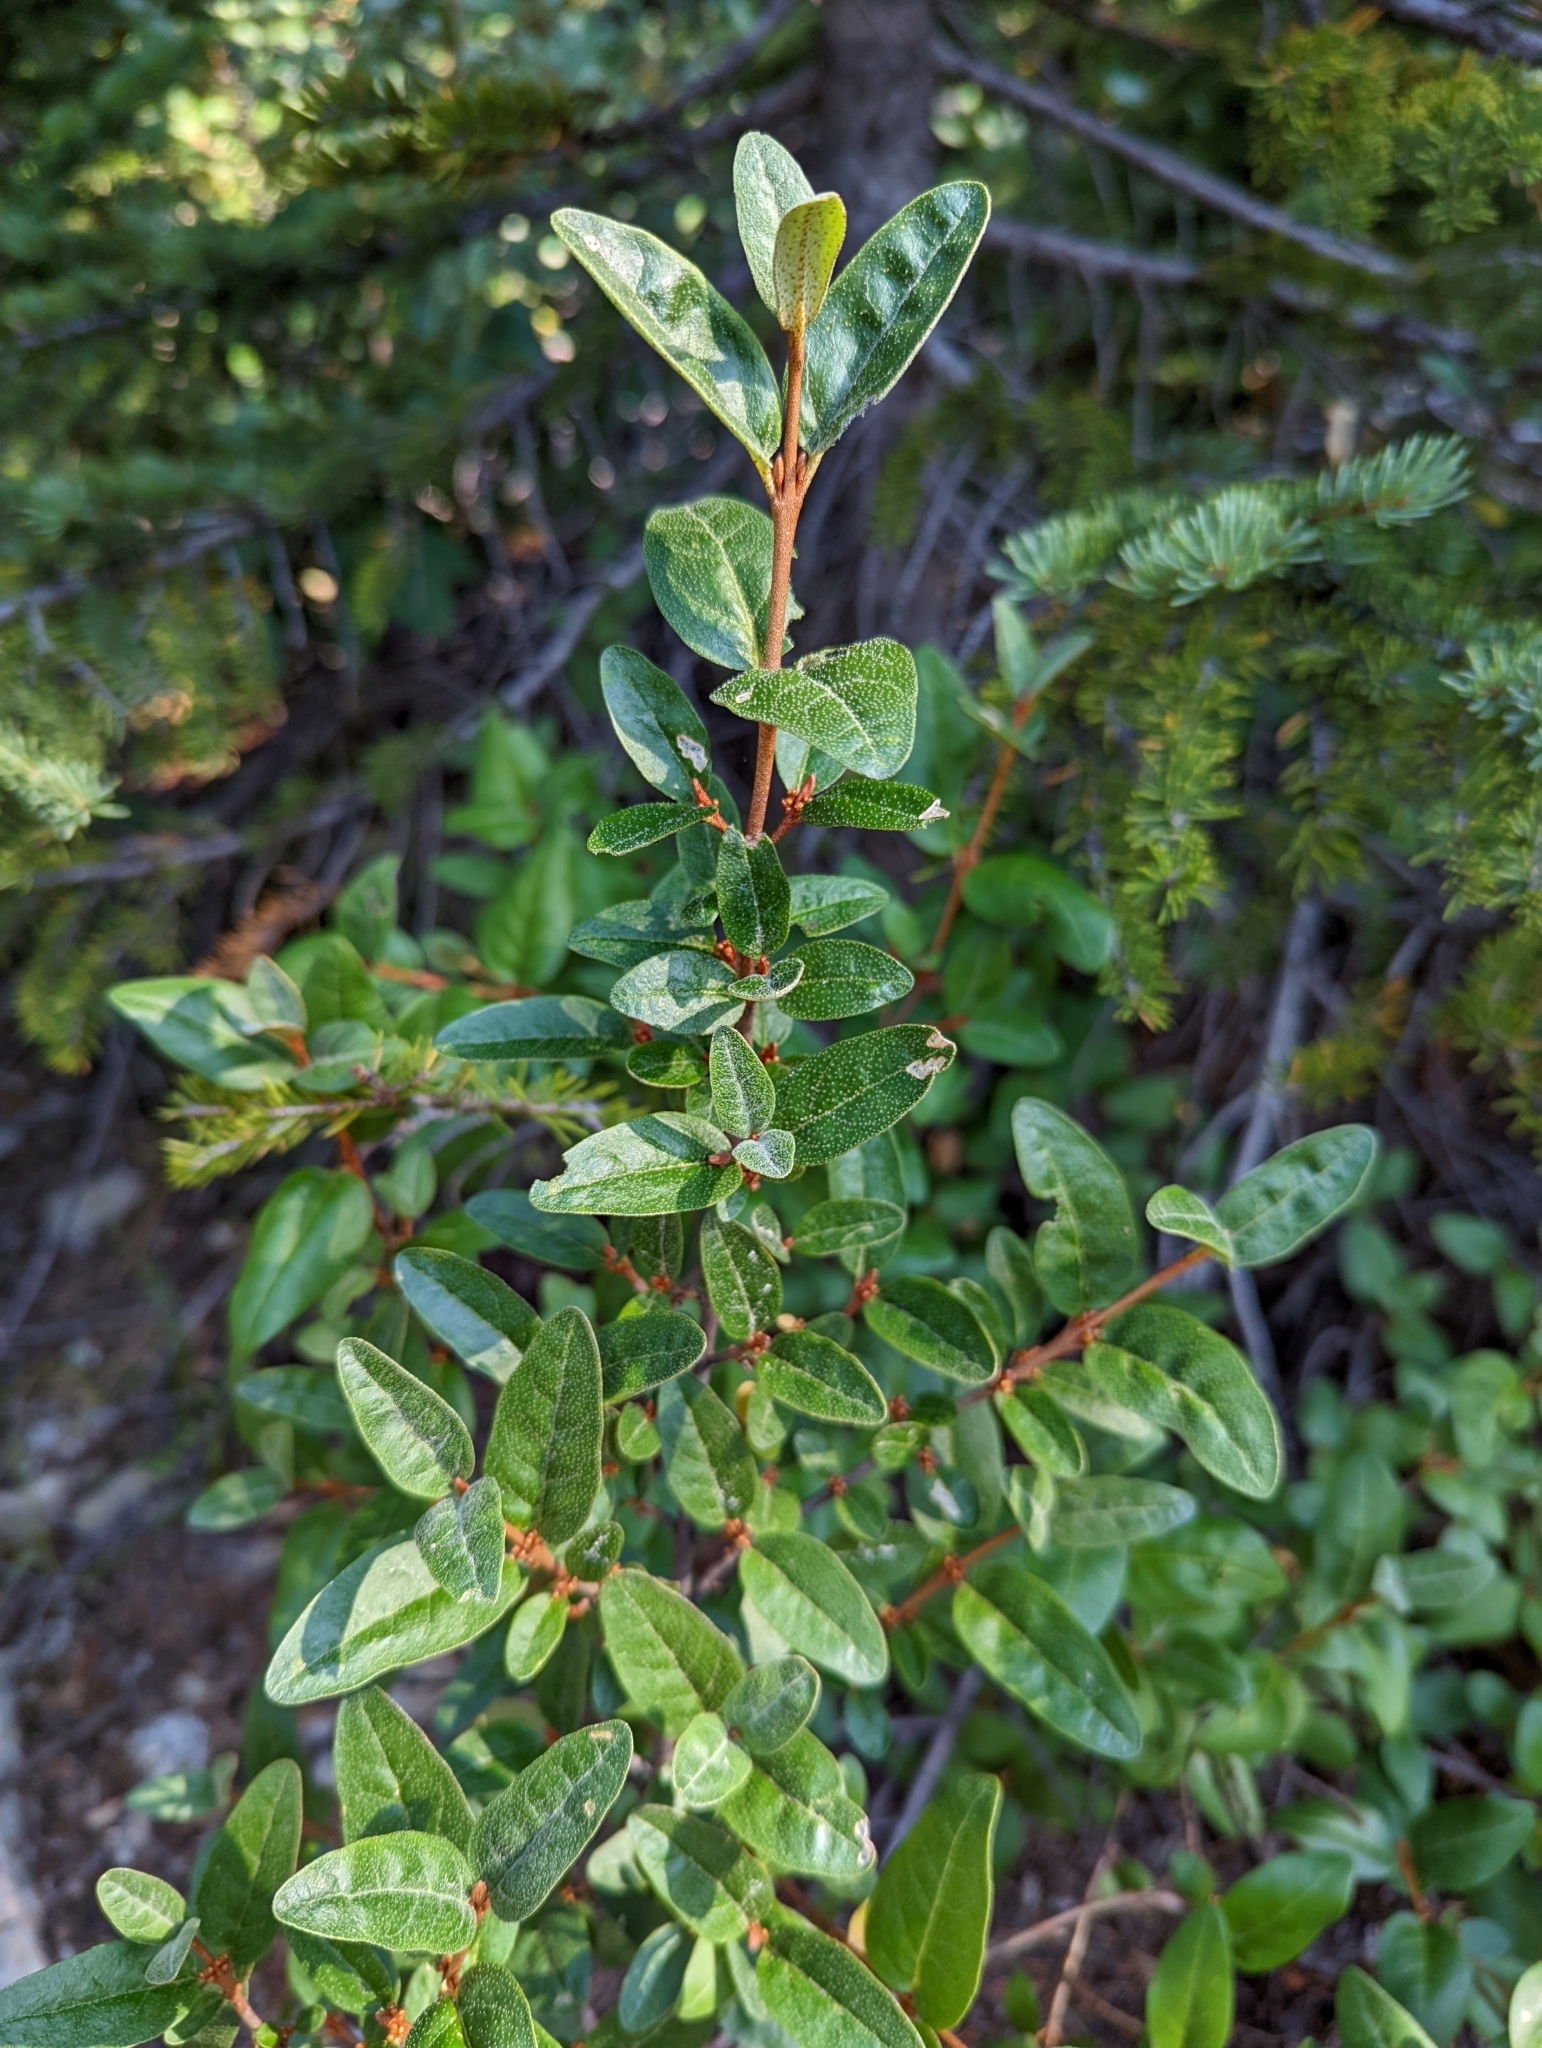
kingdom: Plantae
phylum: Tracheophyta
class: Magnoliopsida
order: Rosales
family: Elaeagnaceae
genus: Shepherdia
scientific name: Shepherdia canadensis
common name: Soapberry
